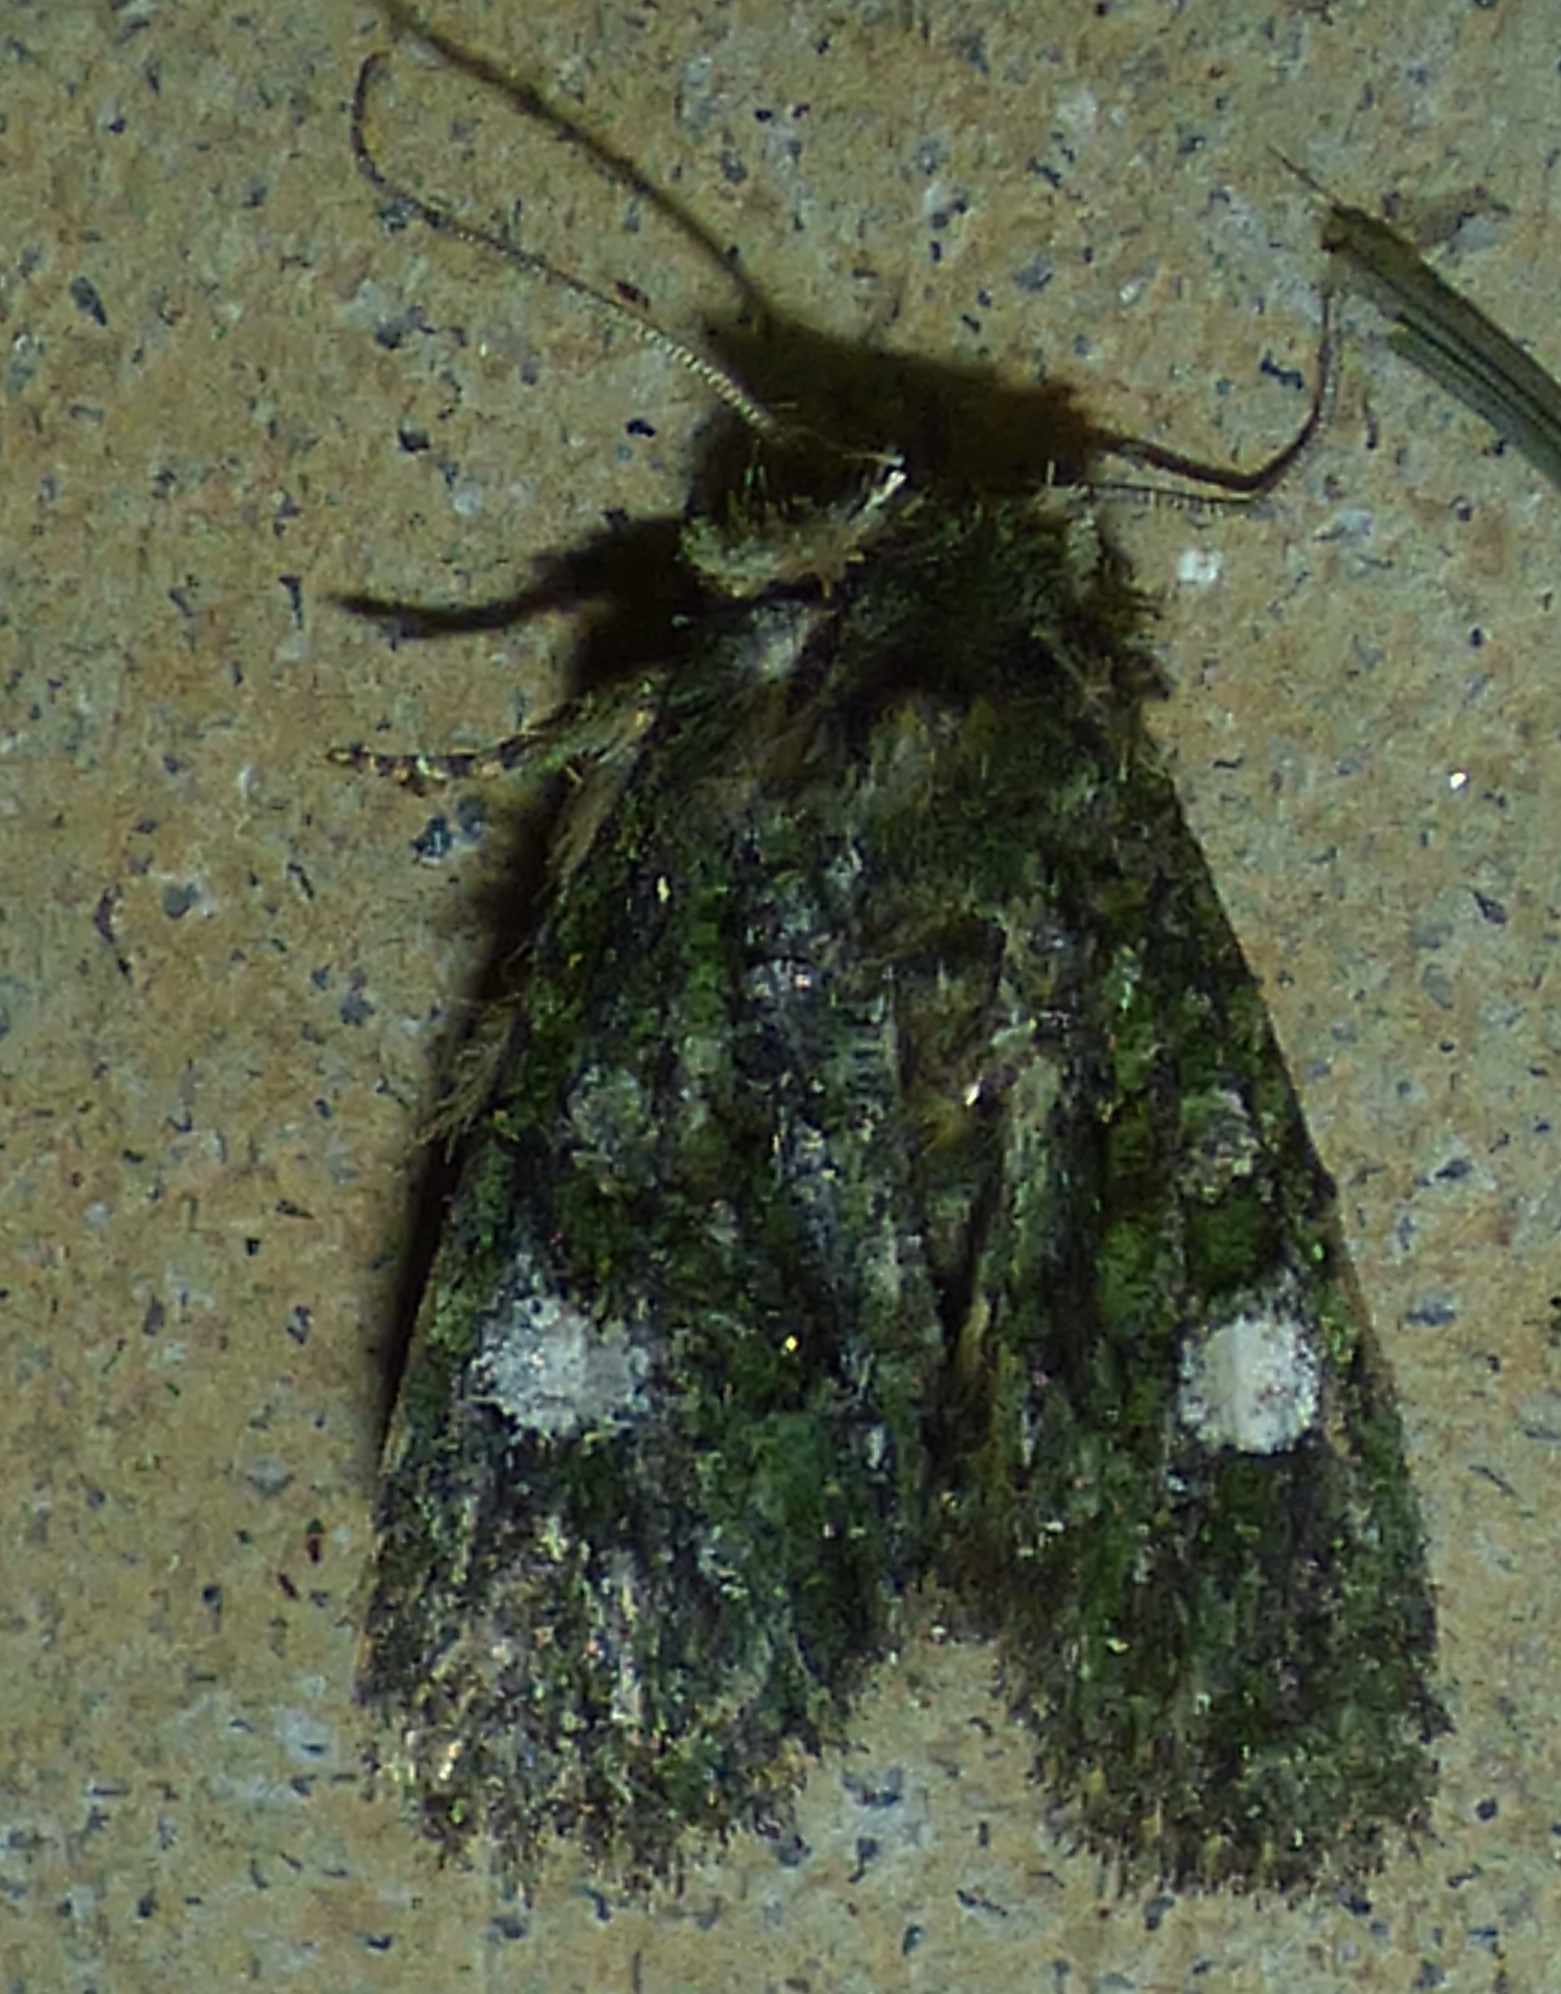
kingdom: Animalia
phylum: Arthropoda
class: Insecta
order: Lepidoptera
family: Noctuidae
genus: Phosphila
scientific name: Phosphila miselioides
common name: Spotted phosphila moth
